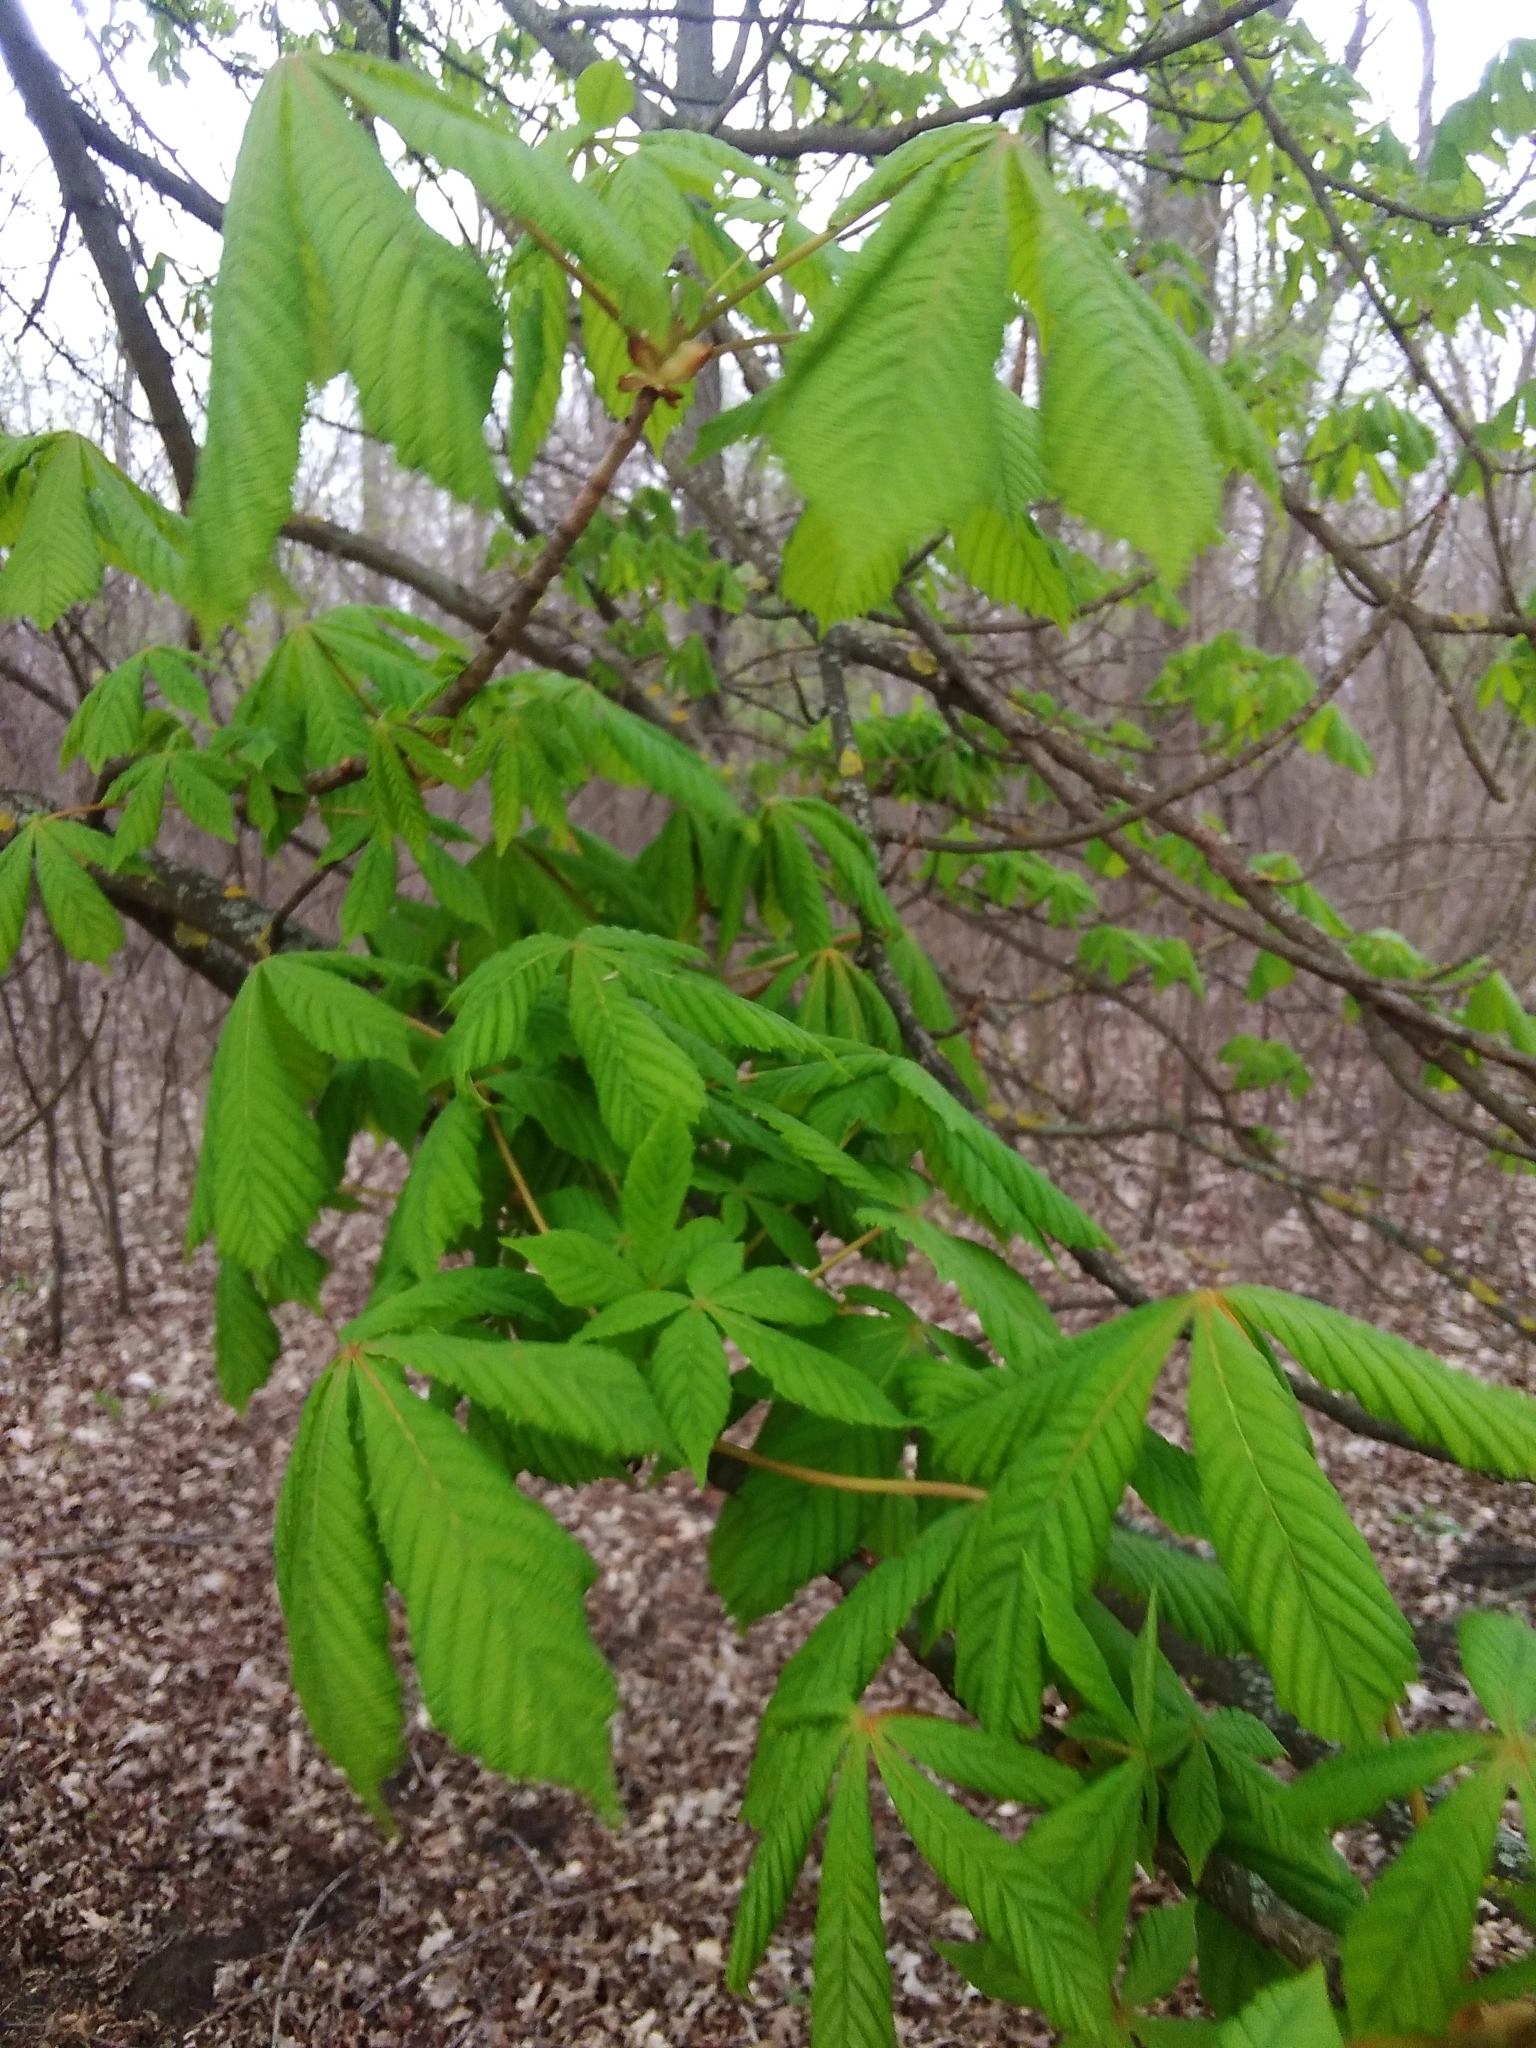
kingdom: Plantae
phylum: Tracheophyta
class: Magnoliopsida
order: Sapindales
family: Sapindaceae
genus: Aesculus
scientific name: Aesculus hippocastanum
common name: Horse-chestnut
